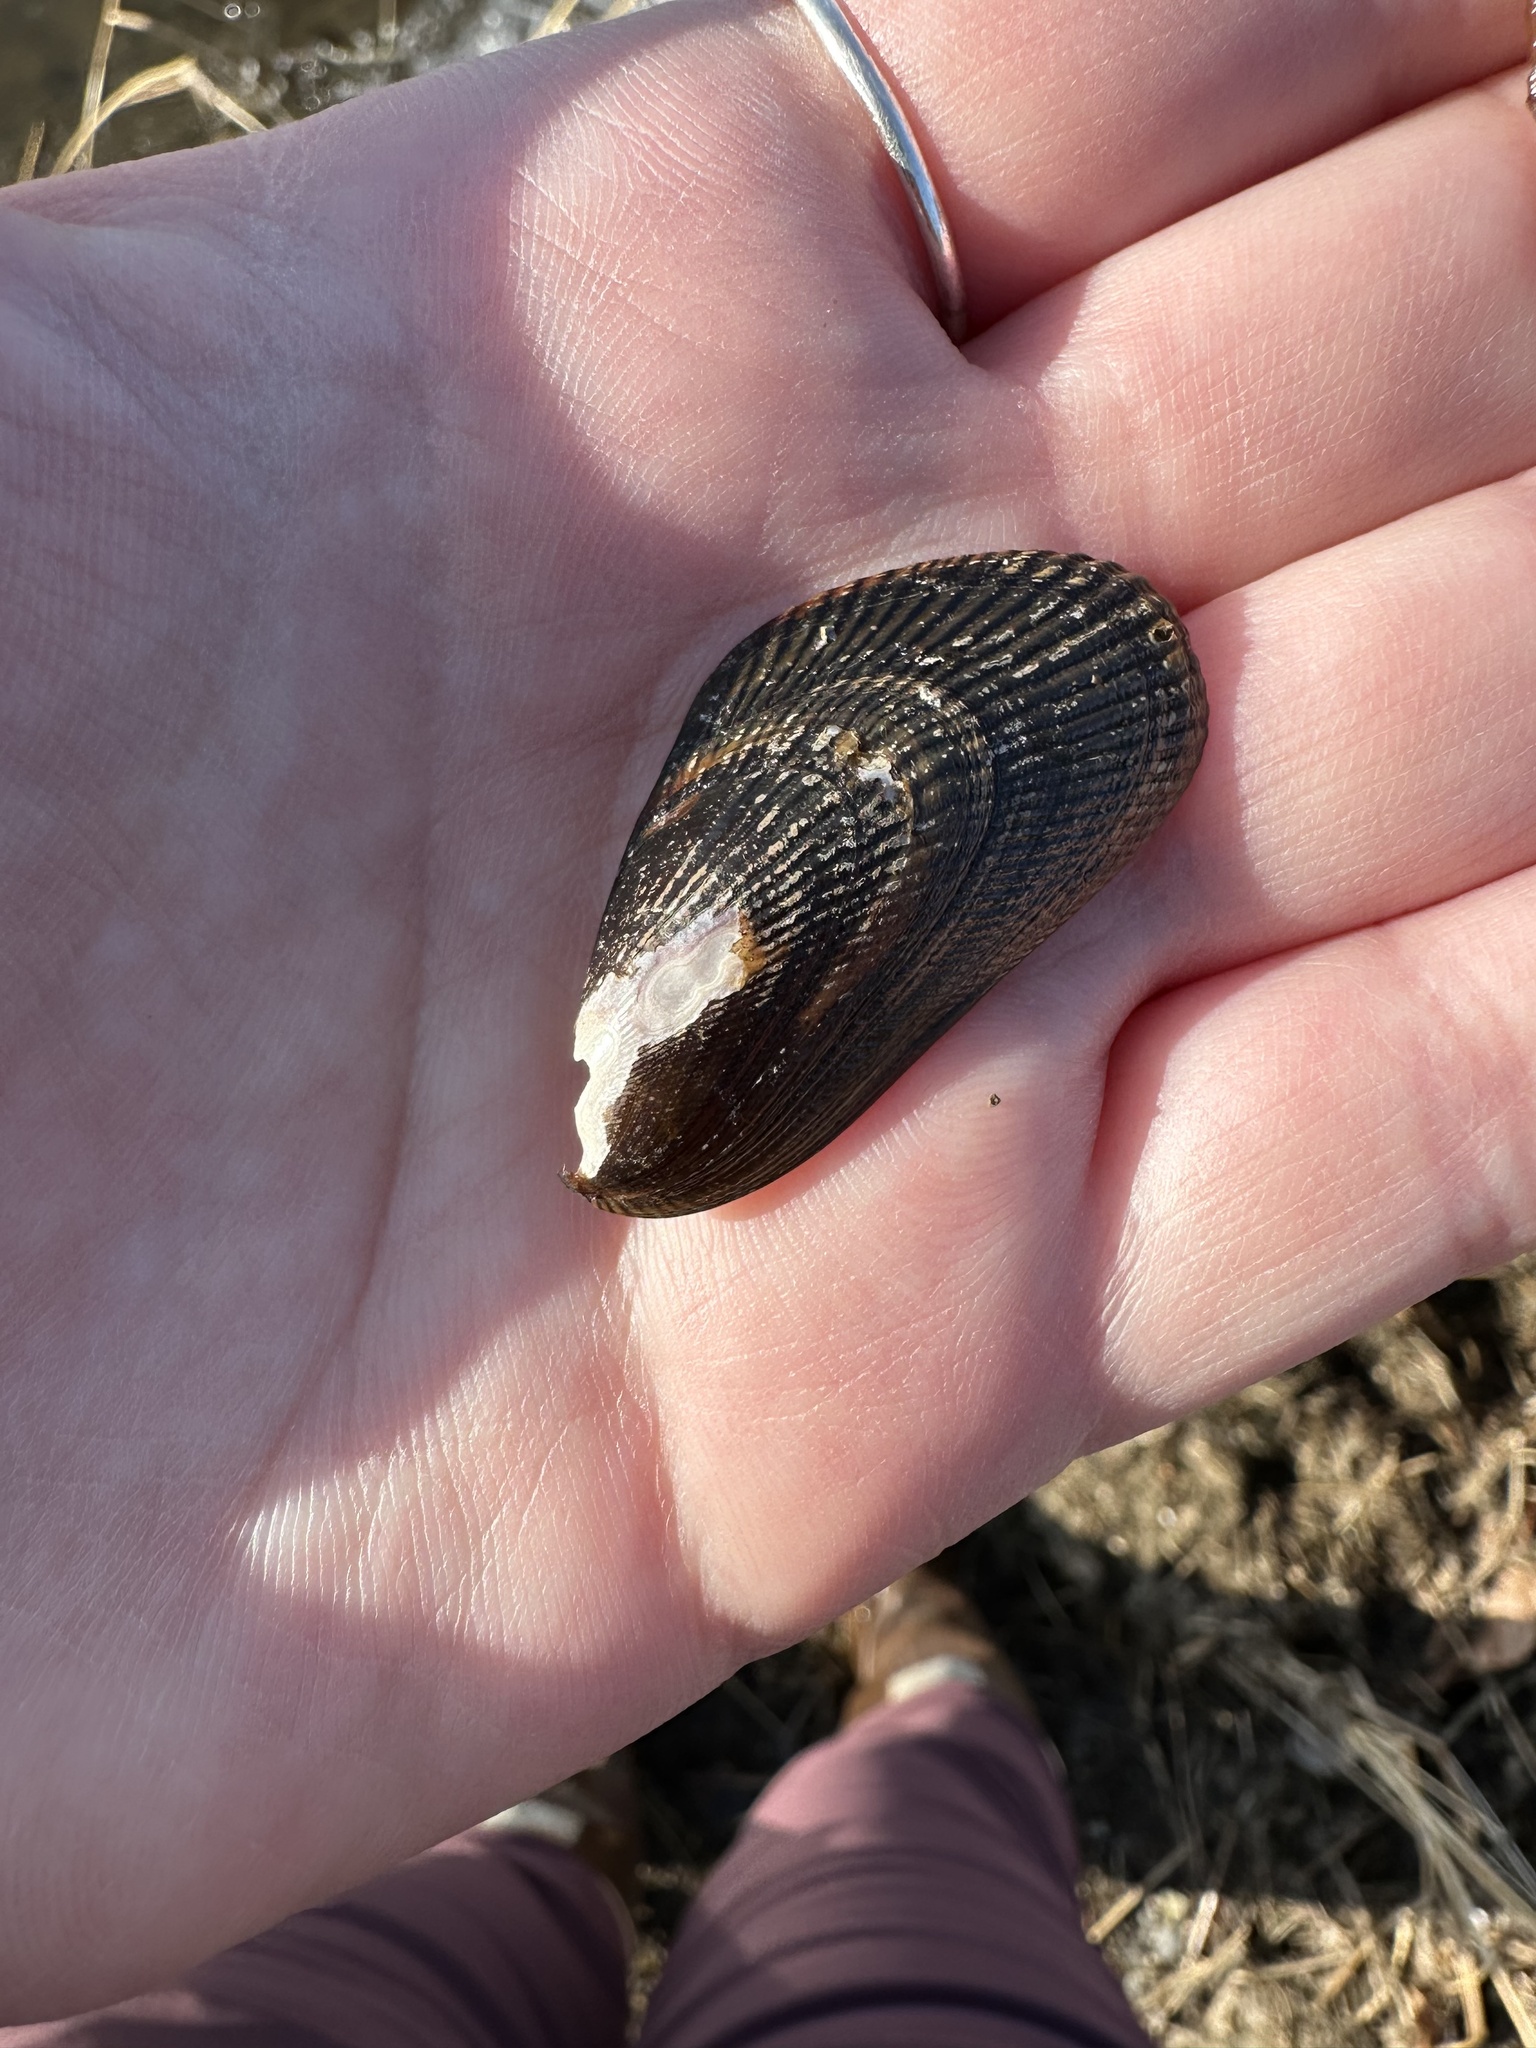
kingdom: Animalia
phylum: Mollusca
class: Bivalvia
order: Mytilida
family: Mytilidae
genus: Geukensia
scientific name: Geukensia demissa
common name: Ribbed mussel
